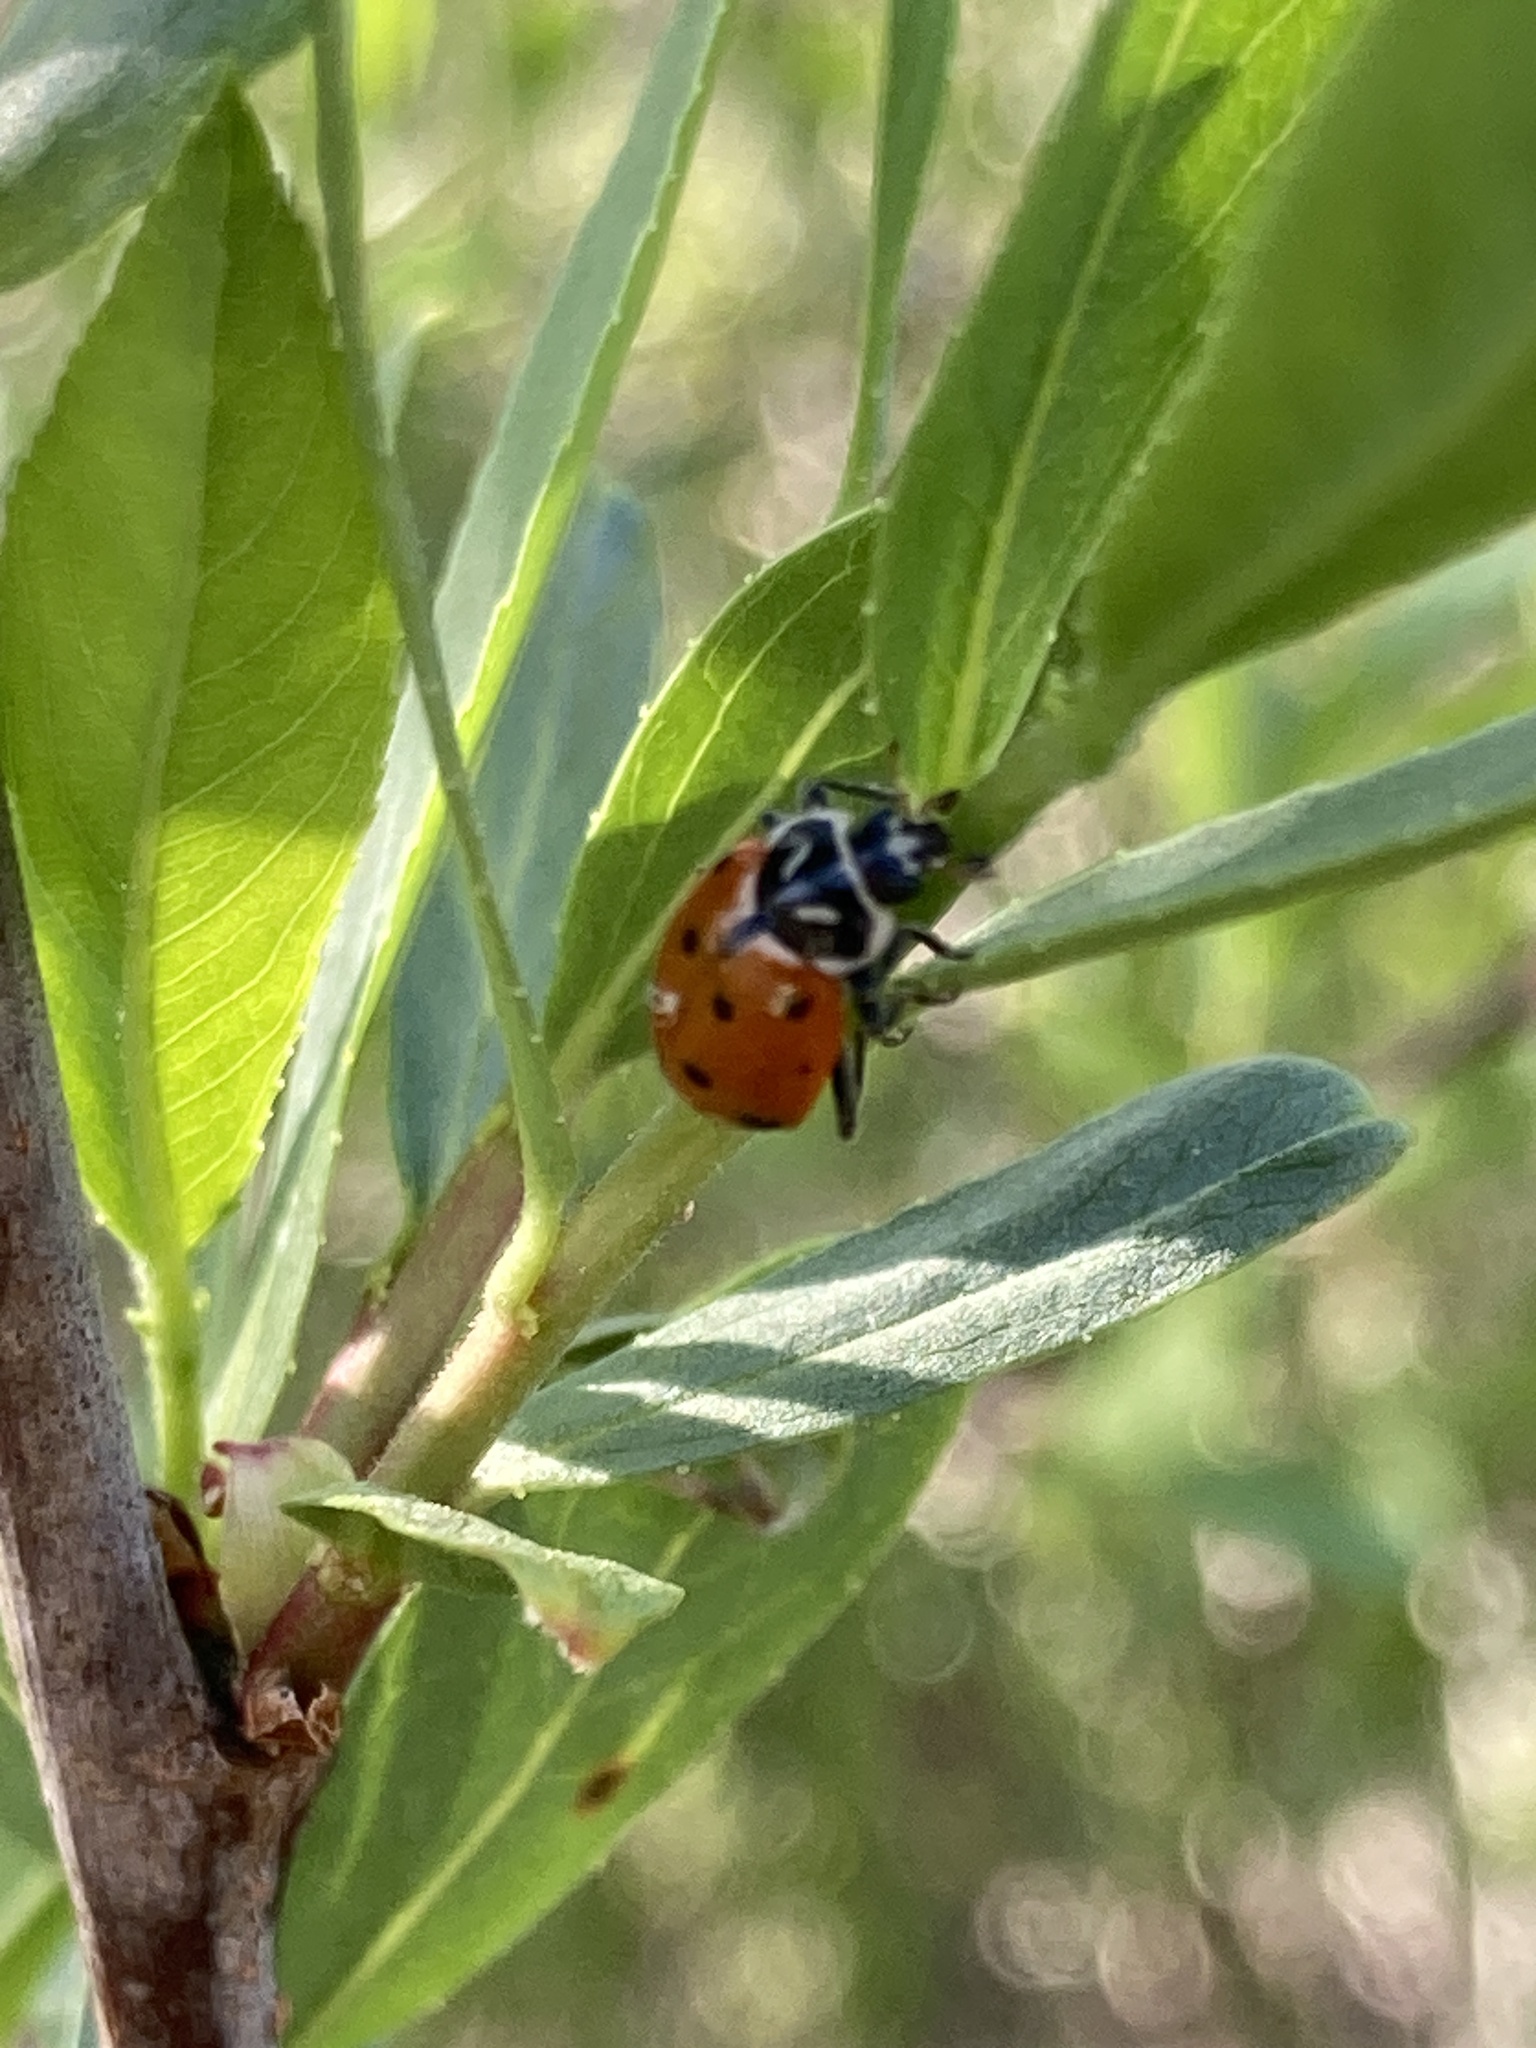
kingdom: Animalia
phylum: Arthropoda
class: Insecta
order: Coleoptera
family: Coccinellidae
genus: Hippodamia
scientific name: Hippodamia convergens
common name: Convergent lady beetle
